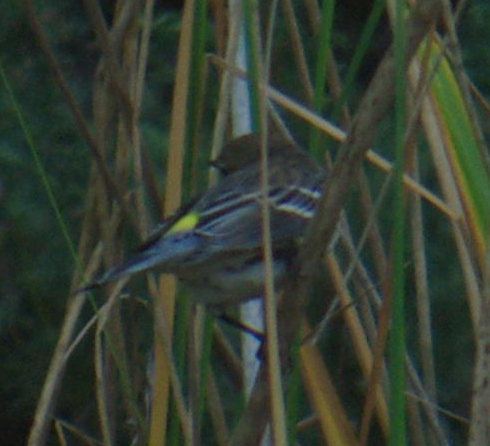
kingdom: Animalia
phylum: Chordata
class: Aves
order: Passeriformes
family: Parulidae
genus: Setophaga
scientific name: Setophaga coronata
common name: Myrtle warbler
